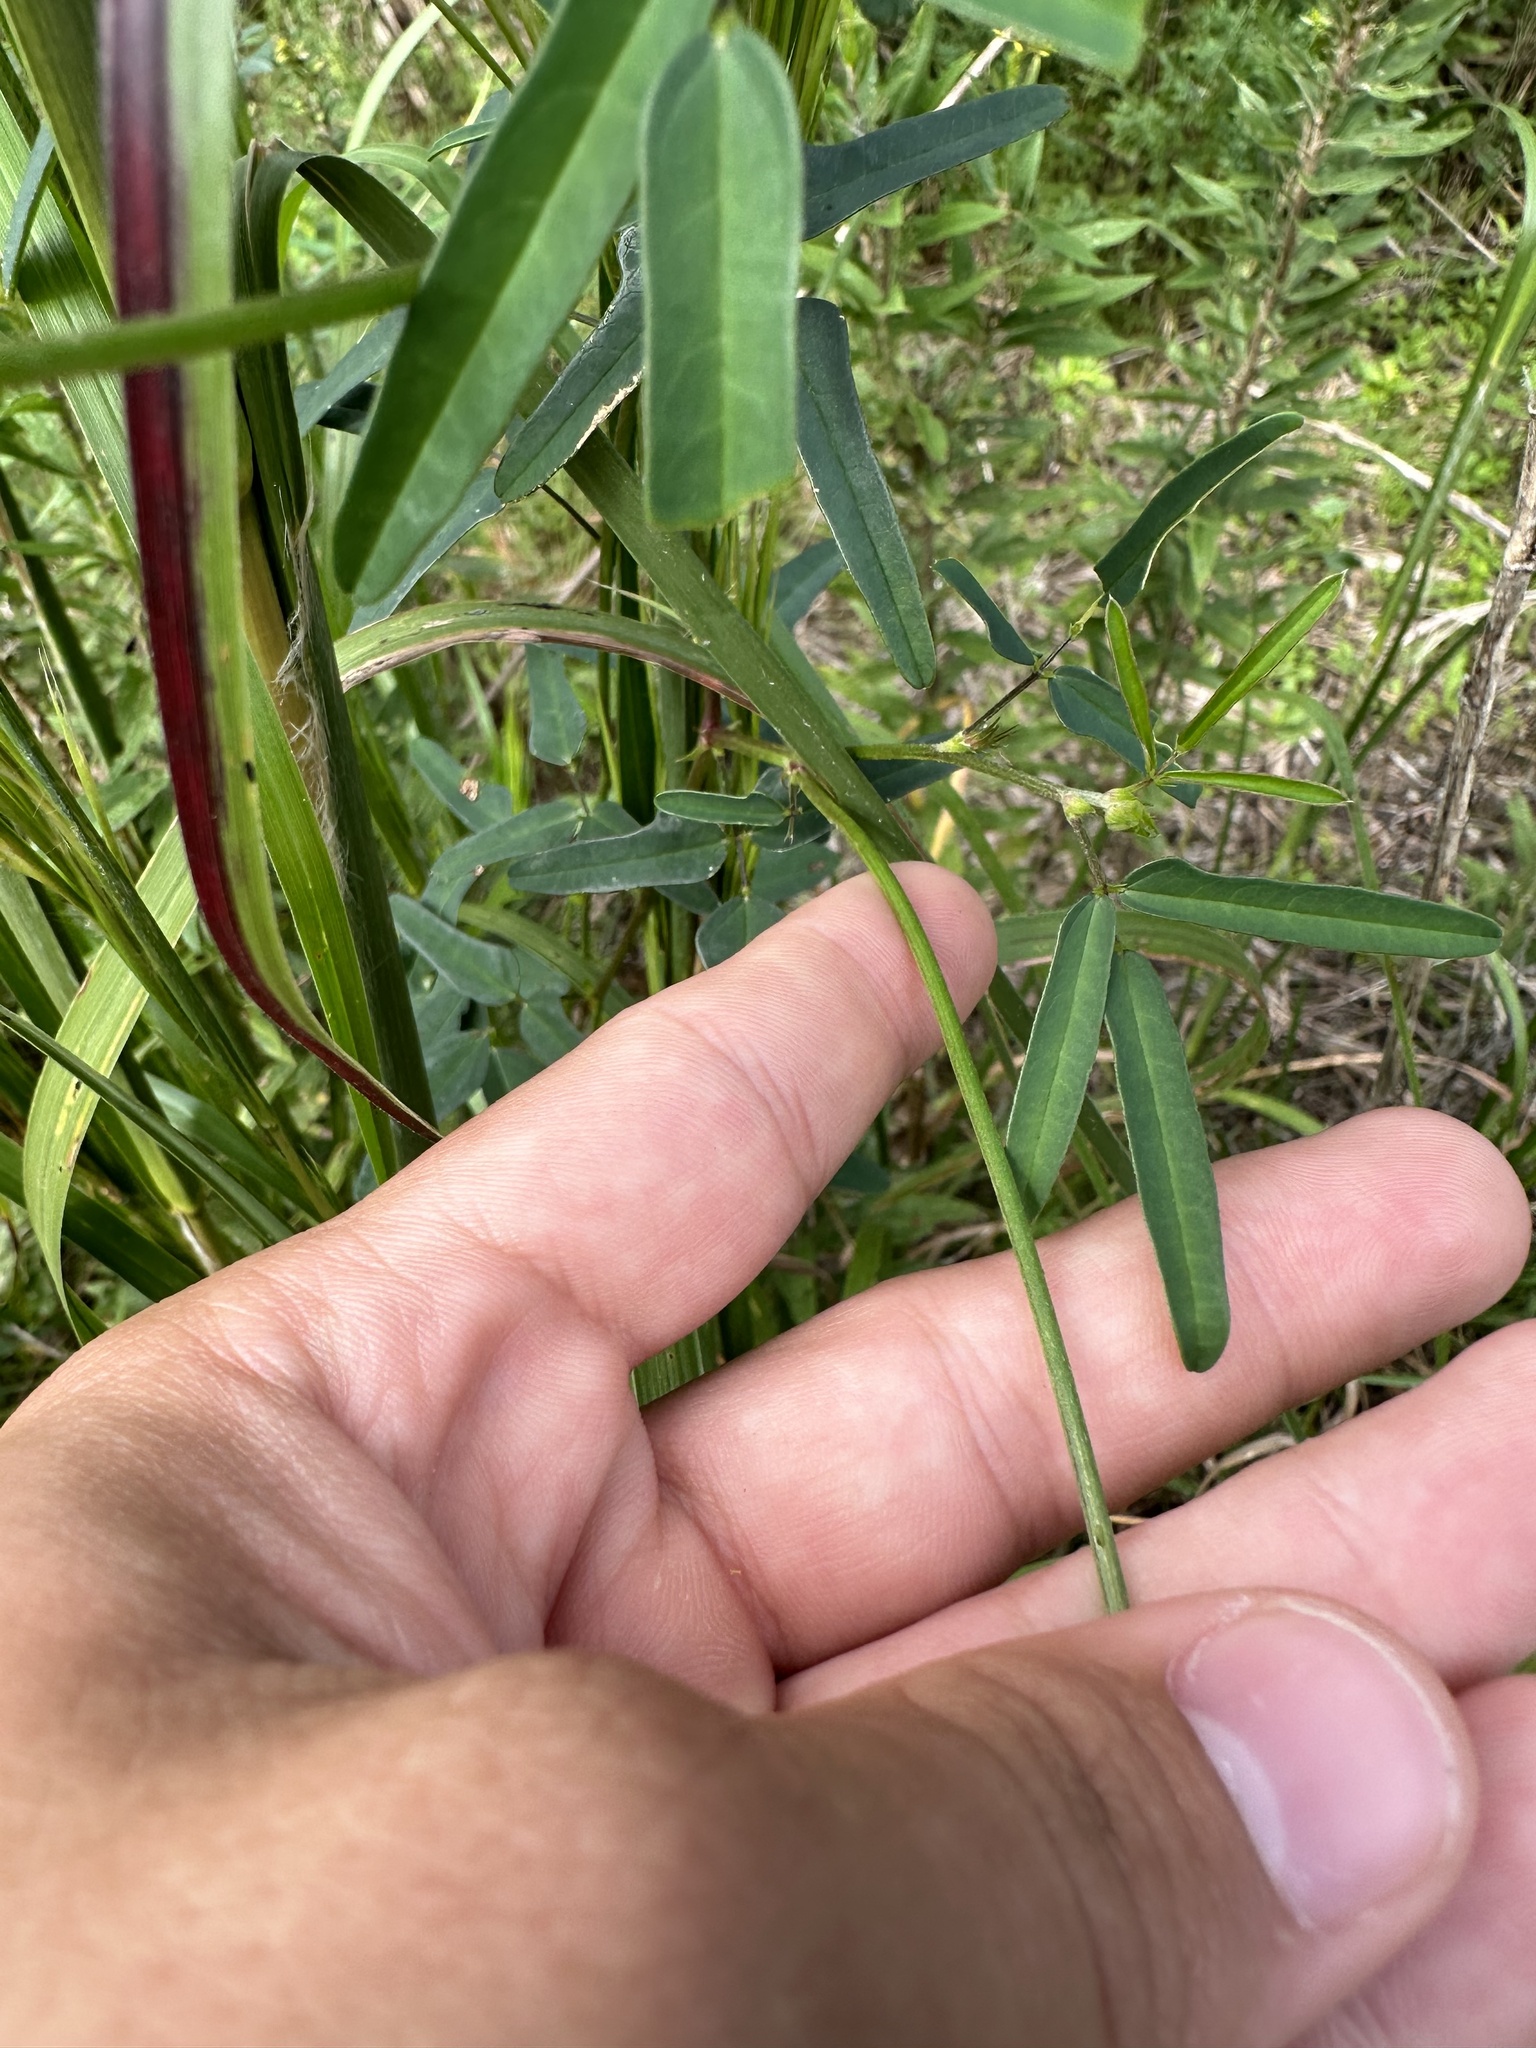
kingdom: Plantae
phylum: Tracheophyta
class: Magnoliopsida
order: Fabales
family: Fabaceae
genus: Macroptilium
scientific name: Macroptilium lathyroides
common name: Wild bushbean
